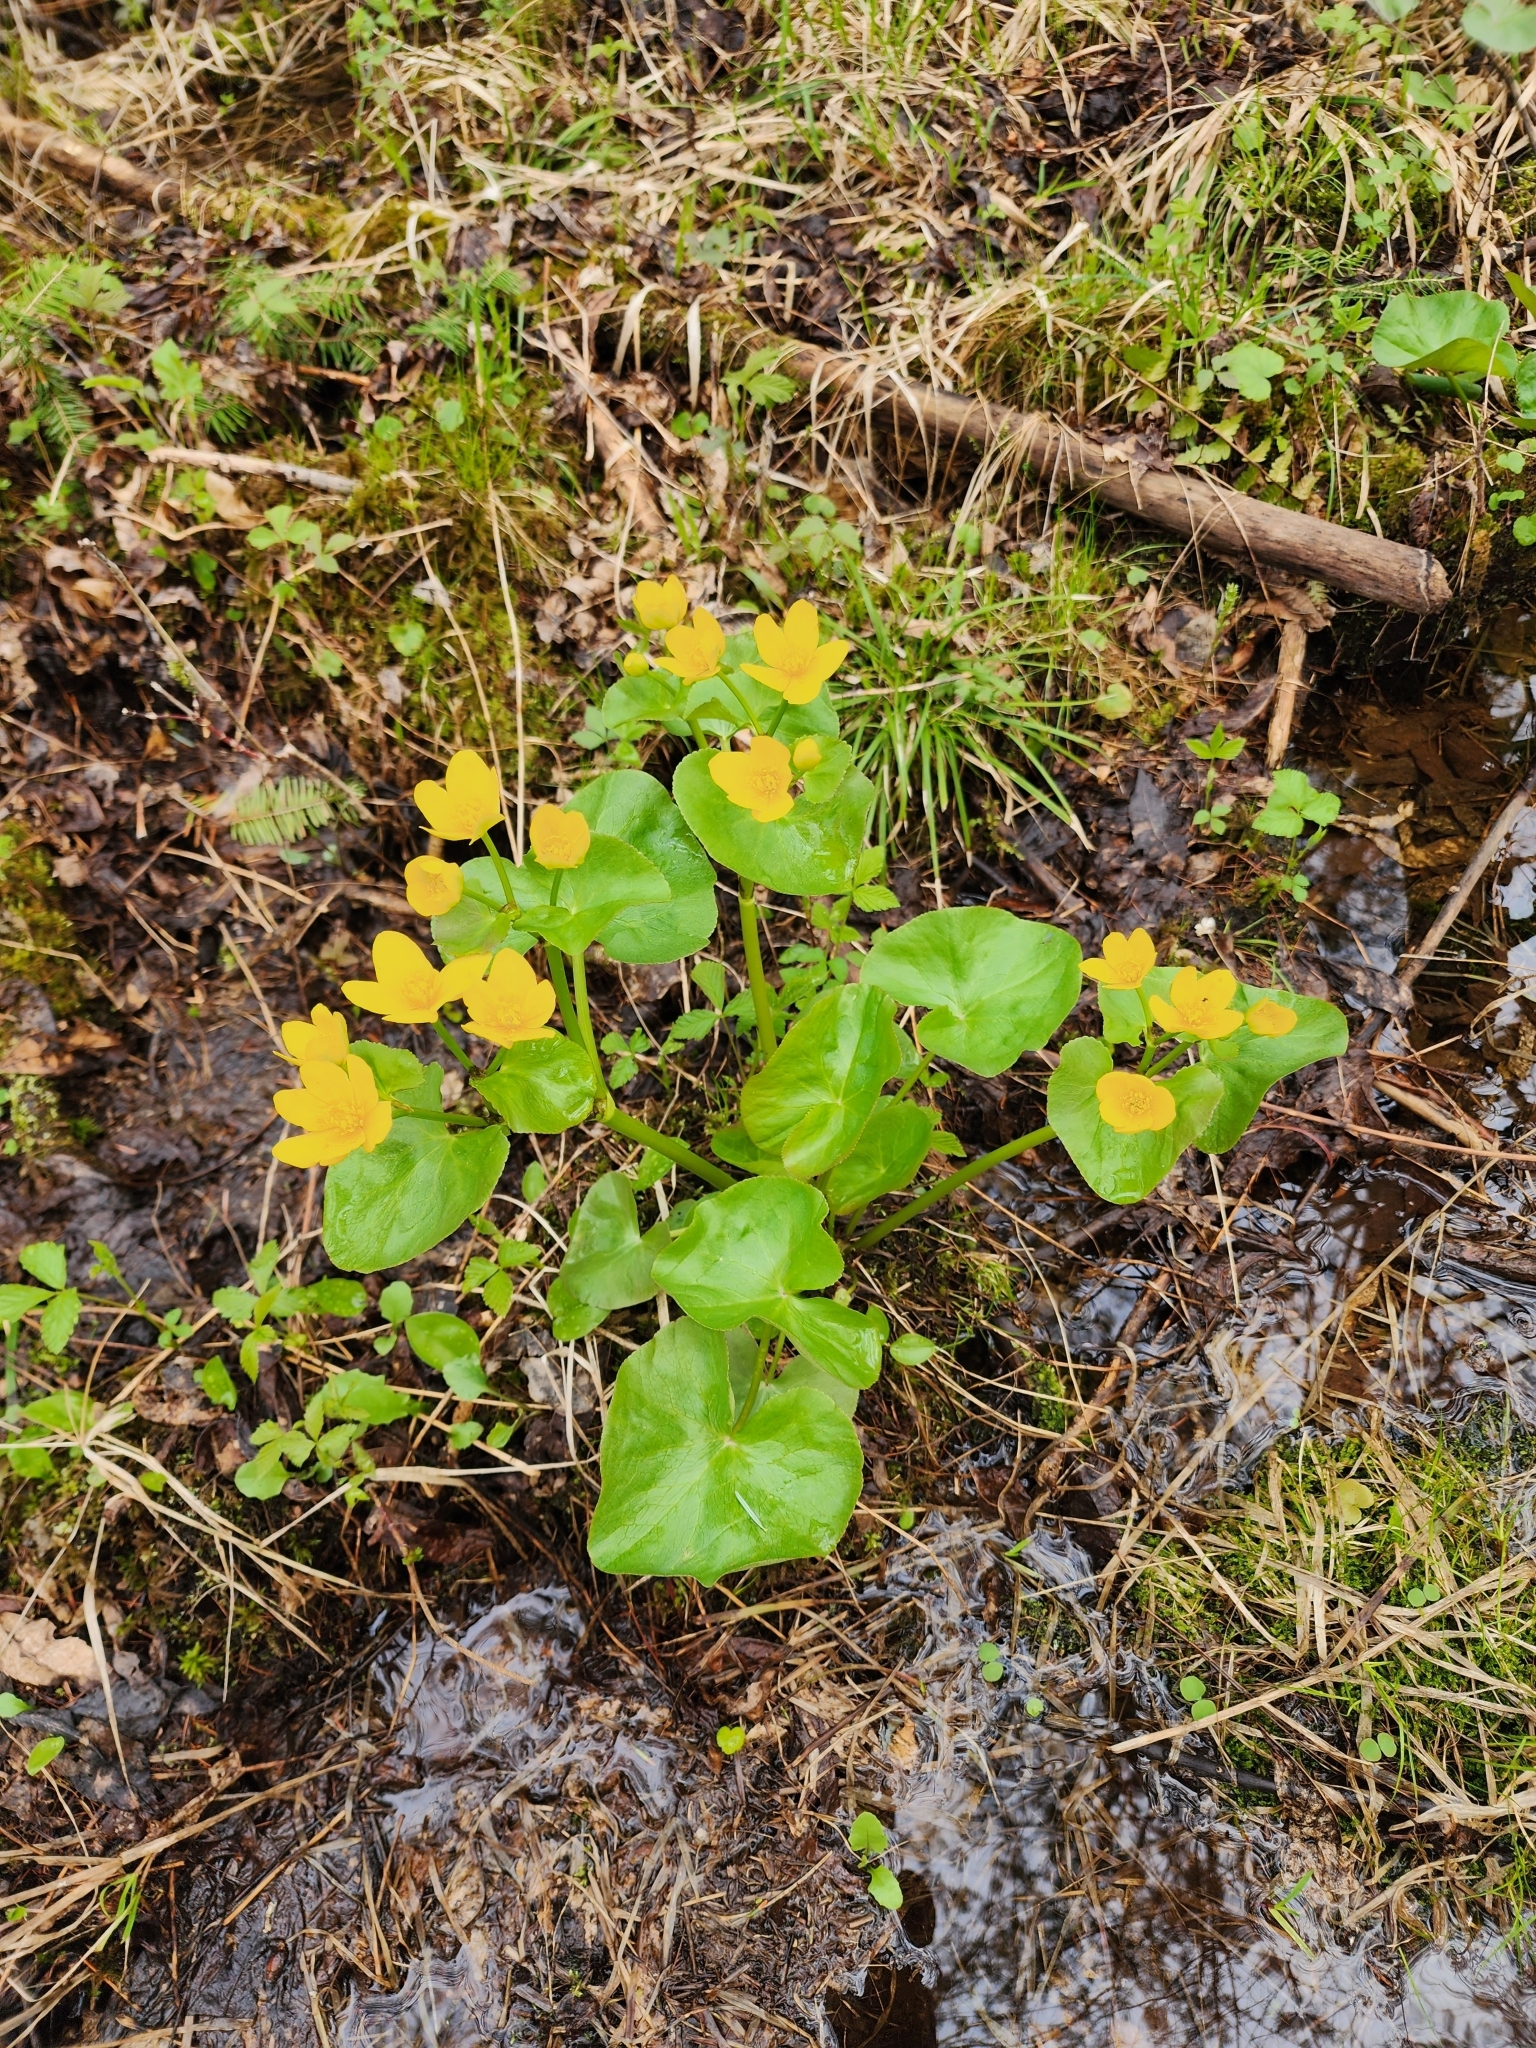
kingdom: Plantae
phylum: Tracheophyta
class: Magnoliopsida
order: Ranunculales
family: Ranunculaceae
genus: Caltha
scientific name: Caltha palustris
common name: Marsh marigold
